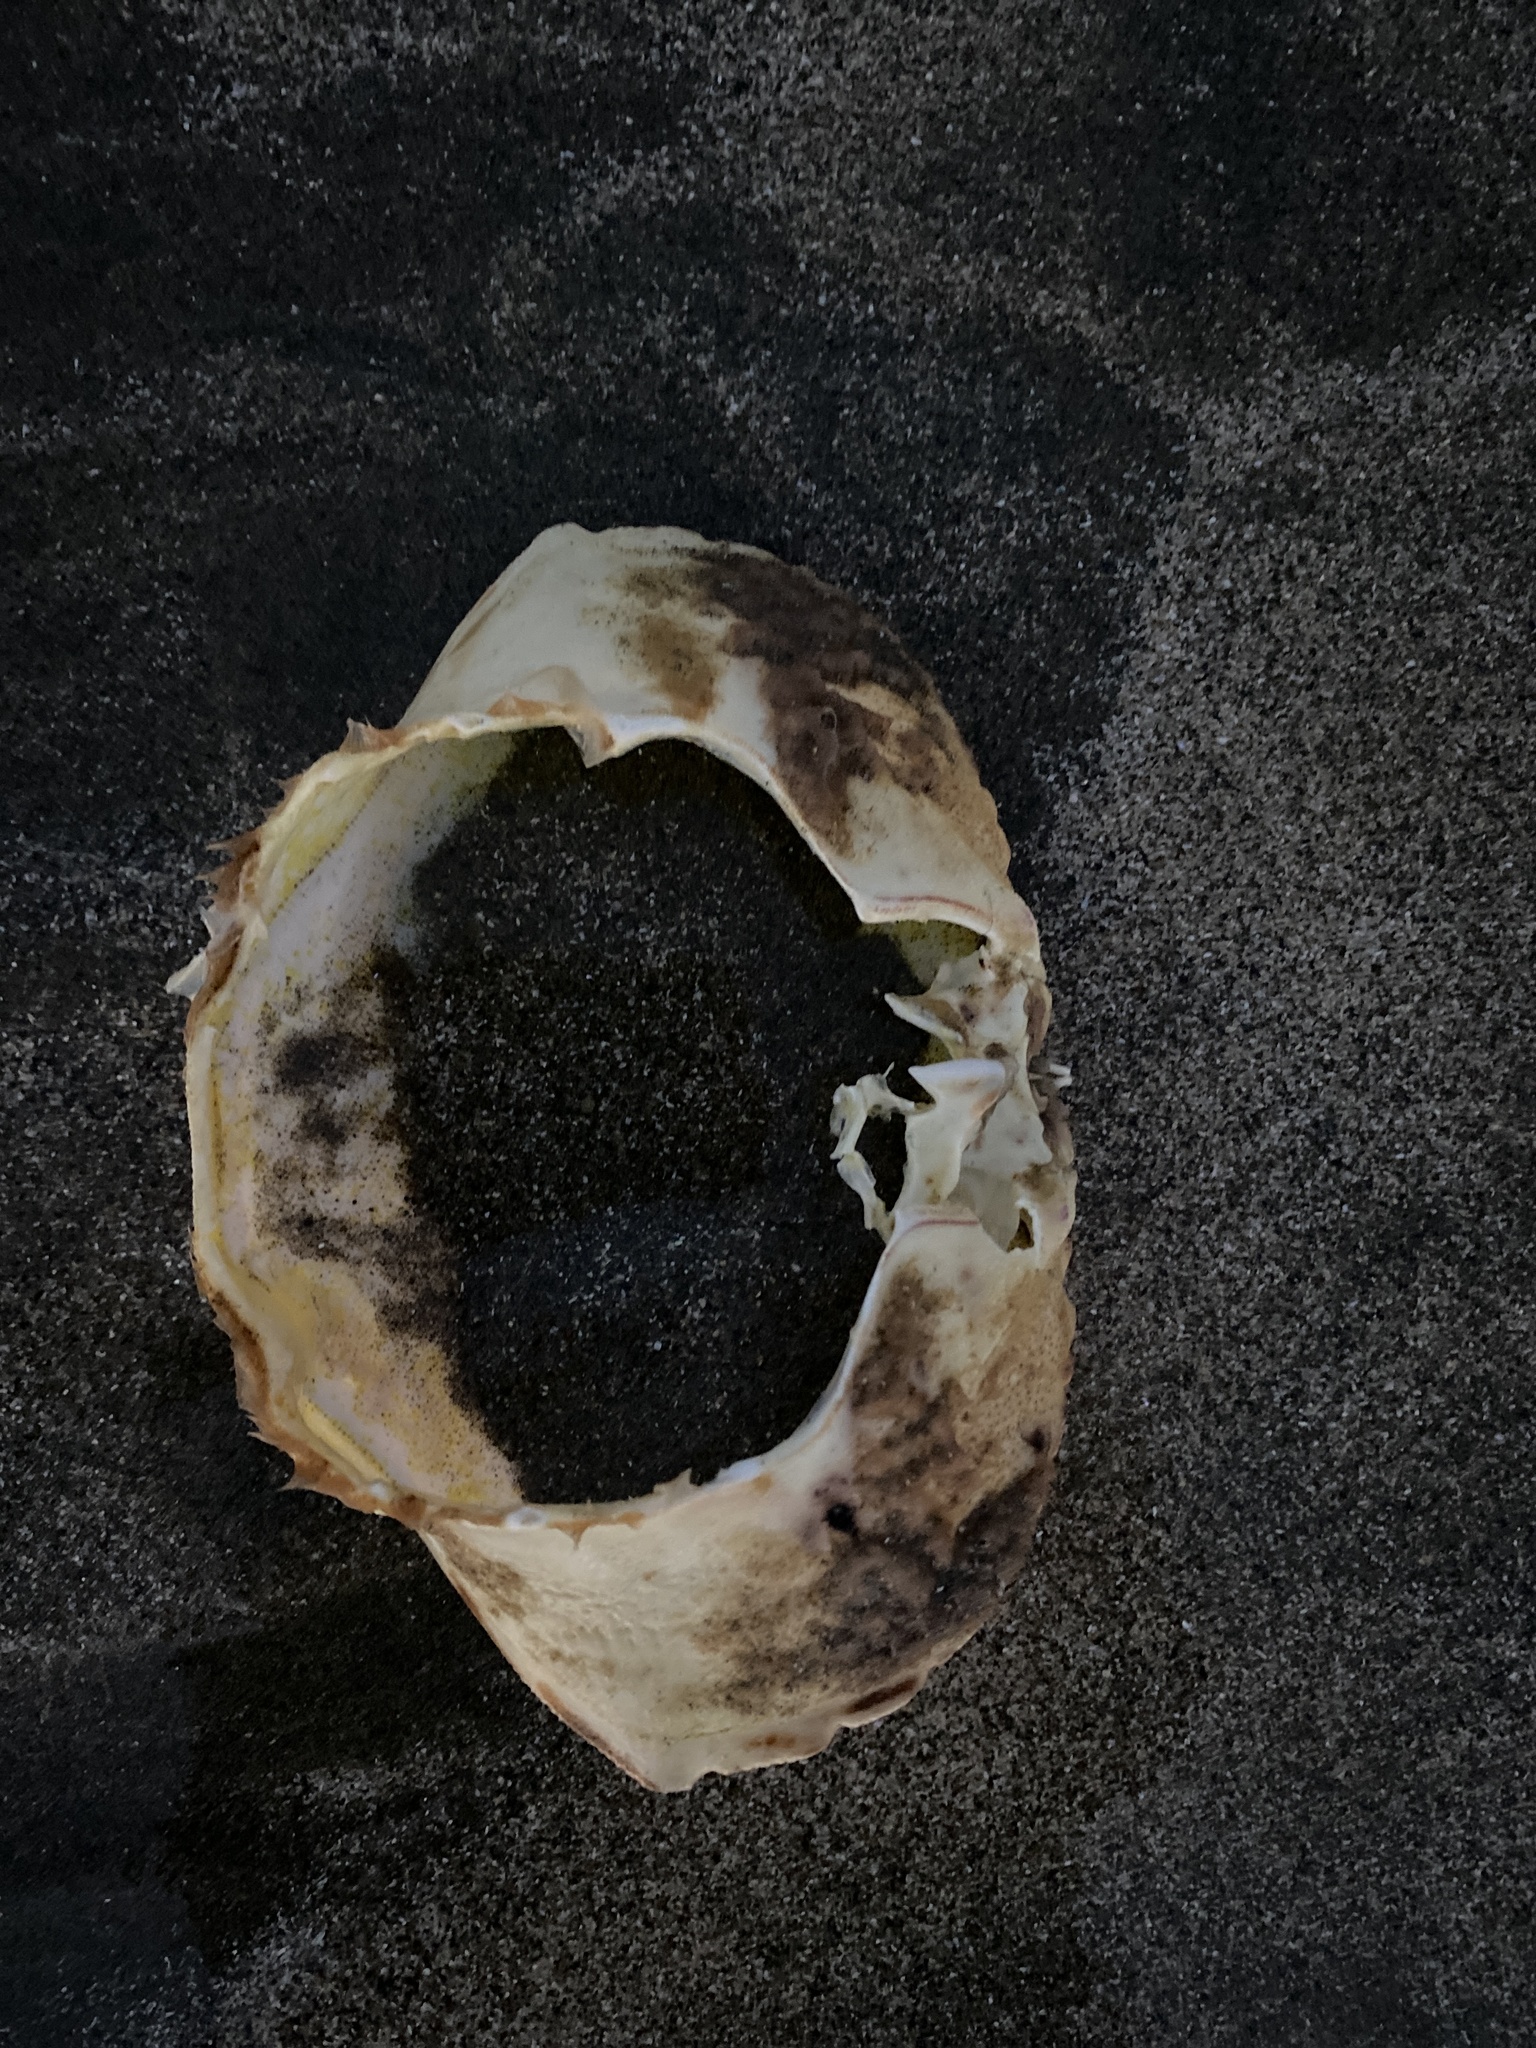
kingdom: Animalia
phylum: Arthropoda
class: Malacostraca
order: Decapoda
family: Cancridae
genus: Metacarcinus
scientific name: Metacarcinus magister
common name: Californian crab
